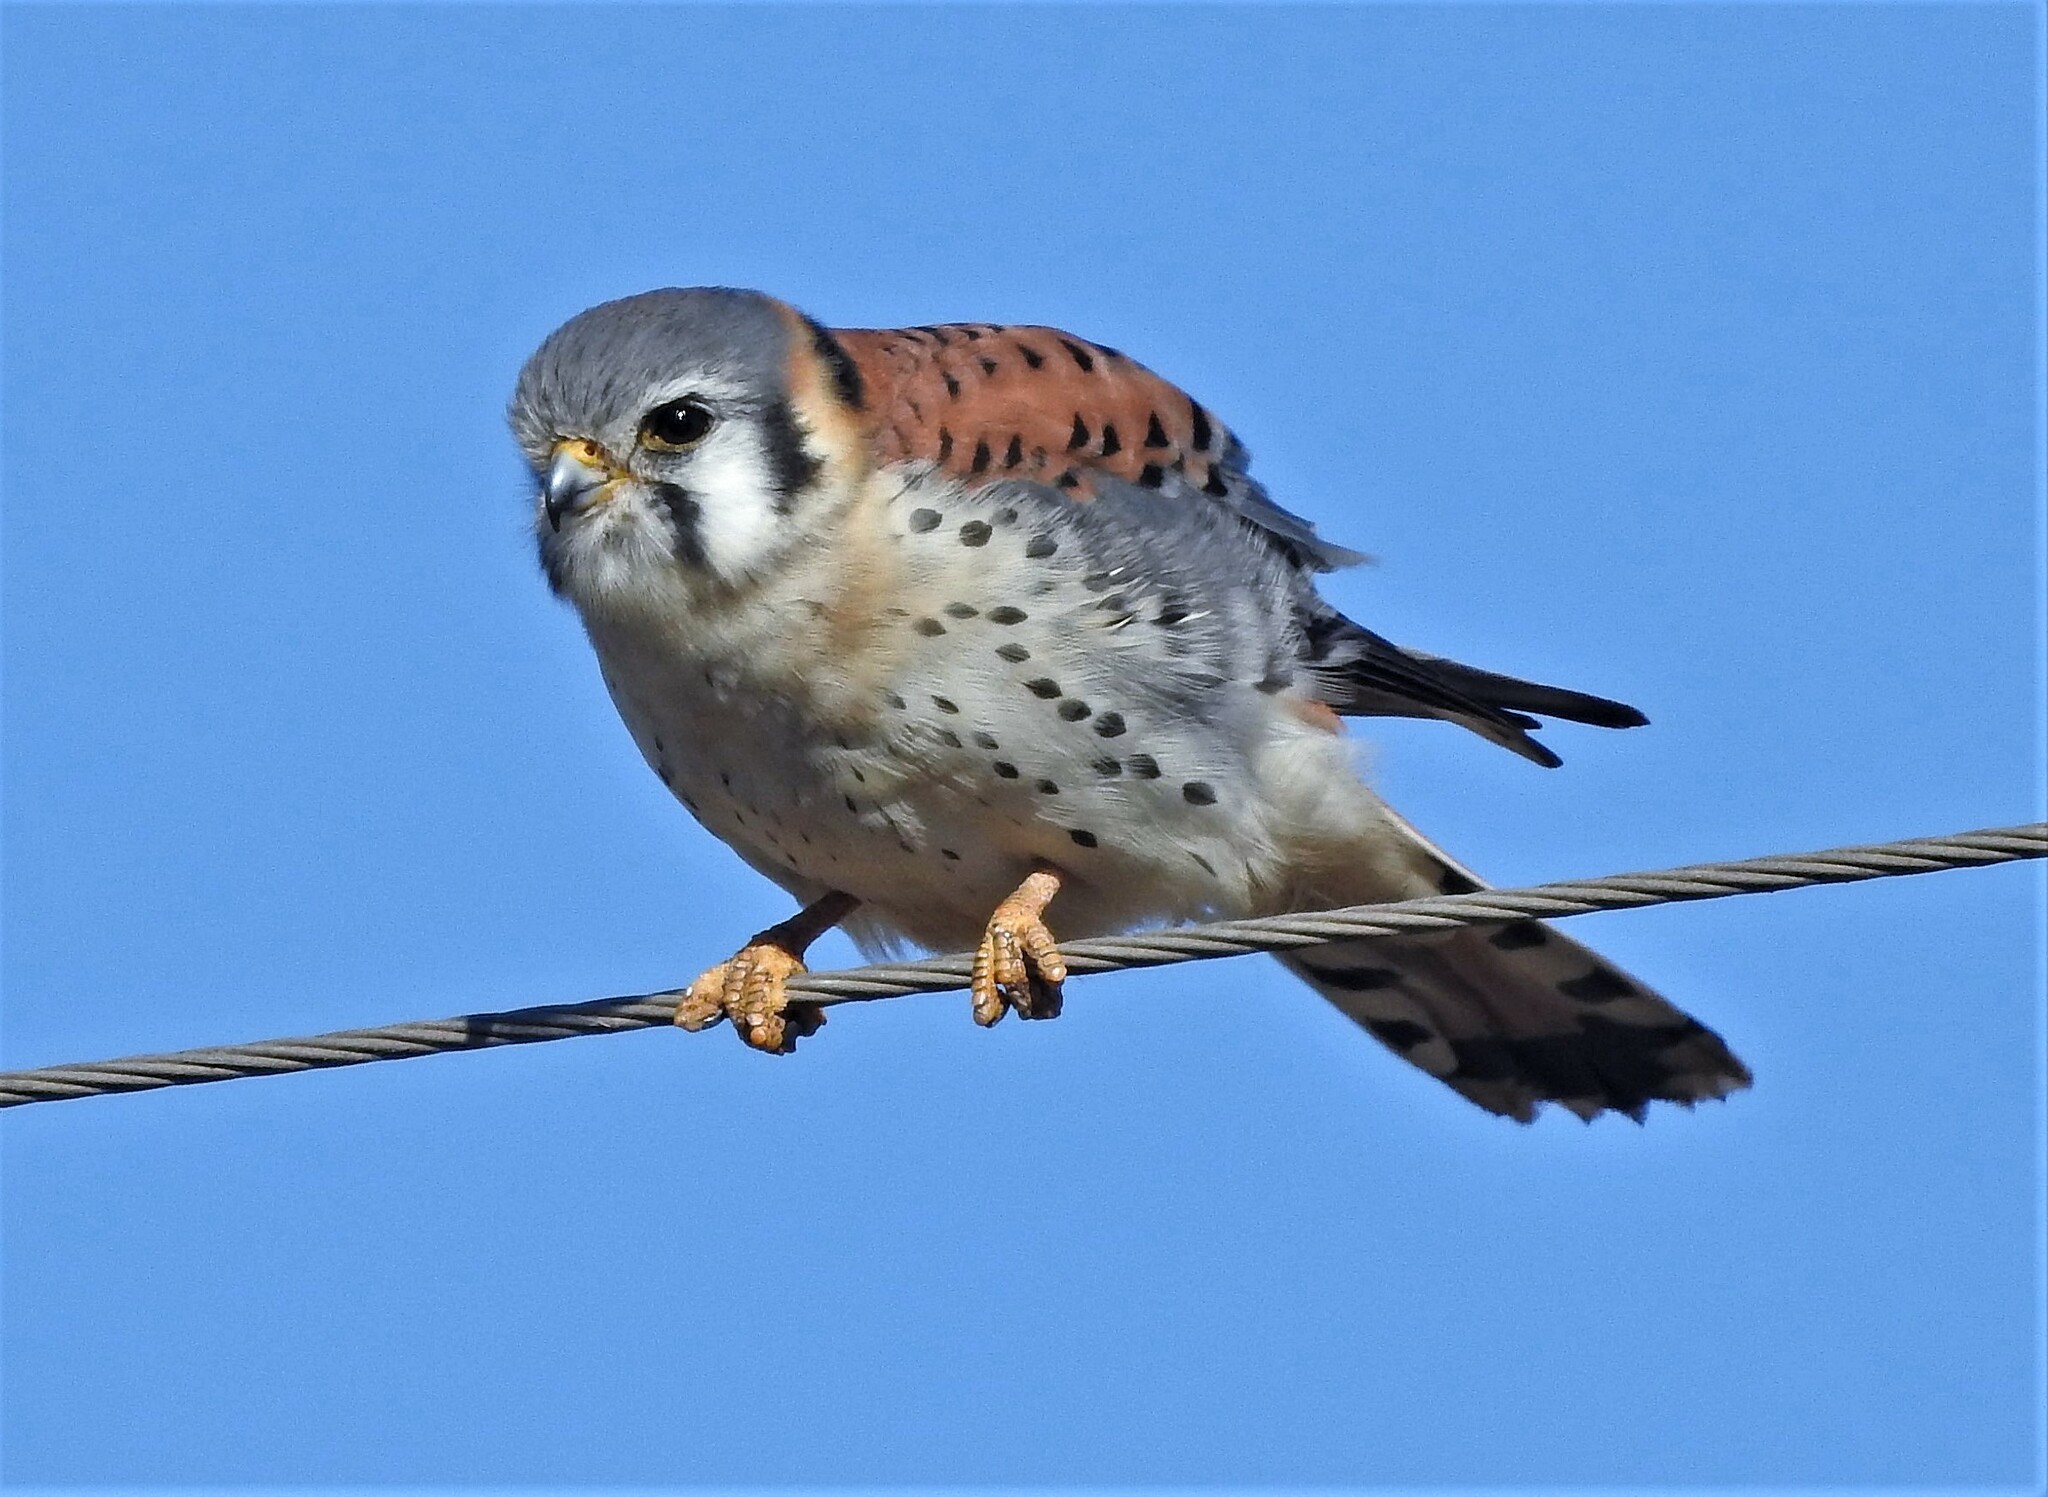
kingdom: Animalia
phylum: Chordata
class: Aves
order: Falconiformes
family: Falconidae
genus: Falco
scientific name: Falco sparverius
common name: American kestrel
